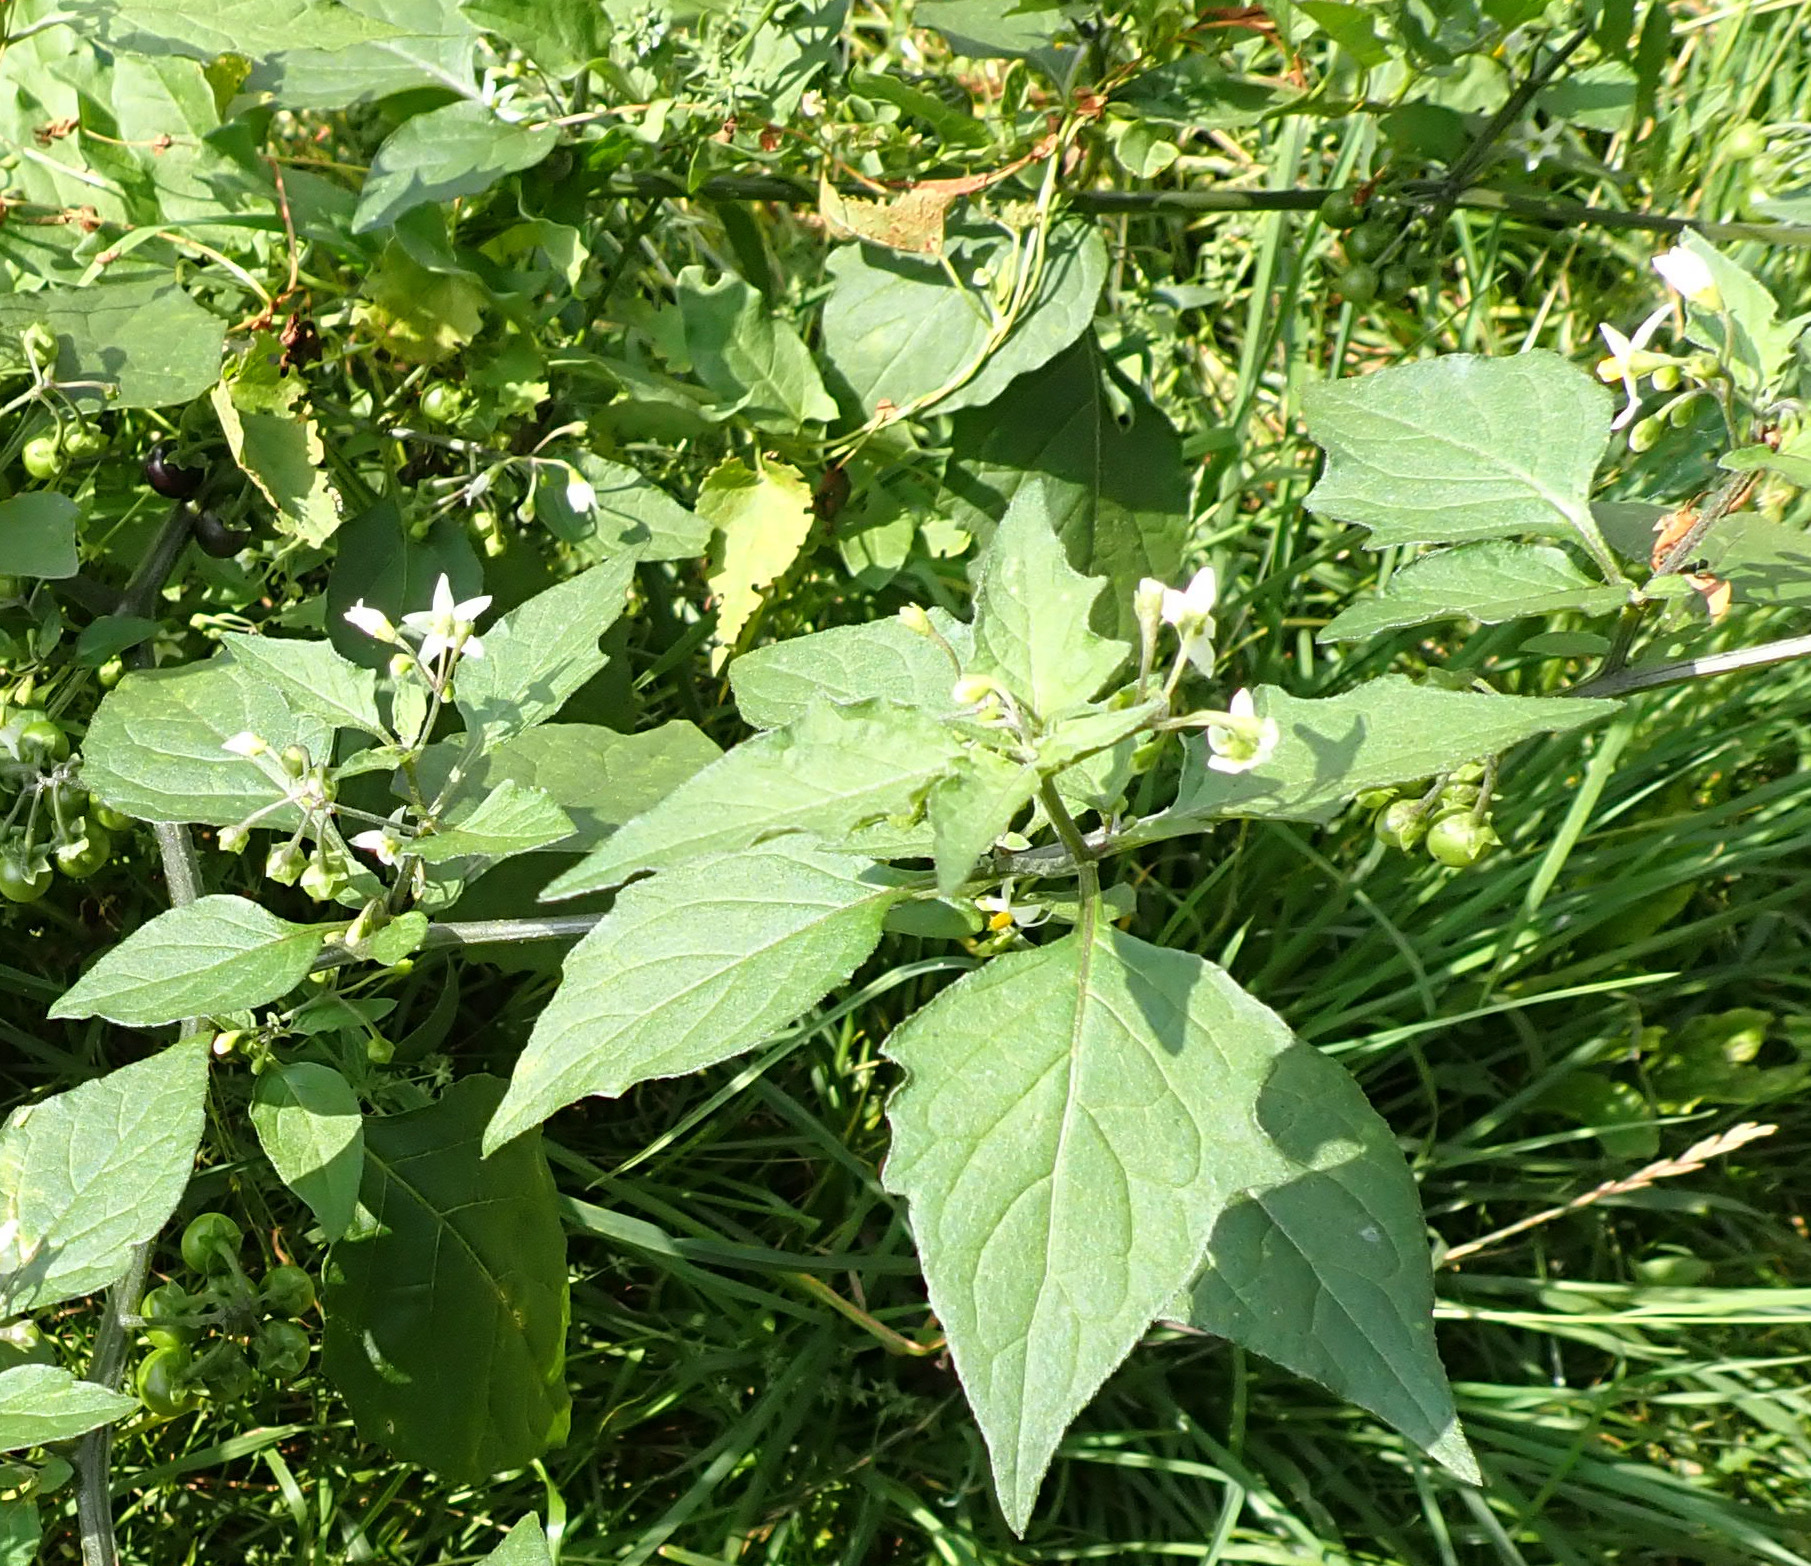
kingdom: Plantae
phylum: Tracheophyta
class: Magnoliopsida
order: Solanales
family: Solanaceae
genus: Solanum
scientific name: Solanum nigrum
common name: Black nightshade
